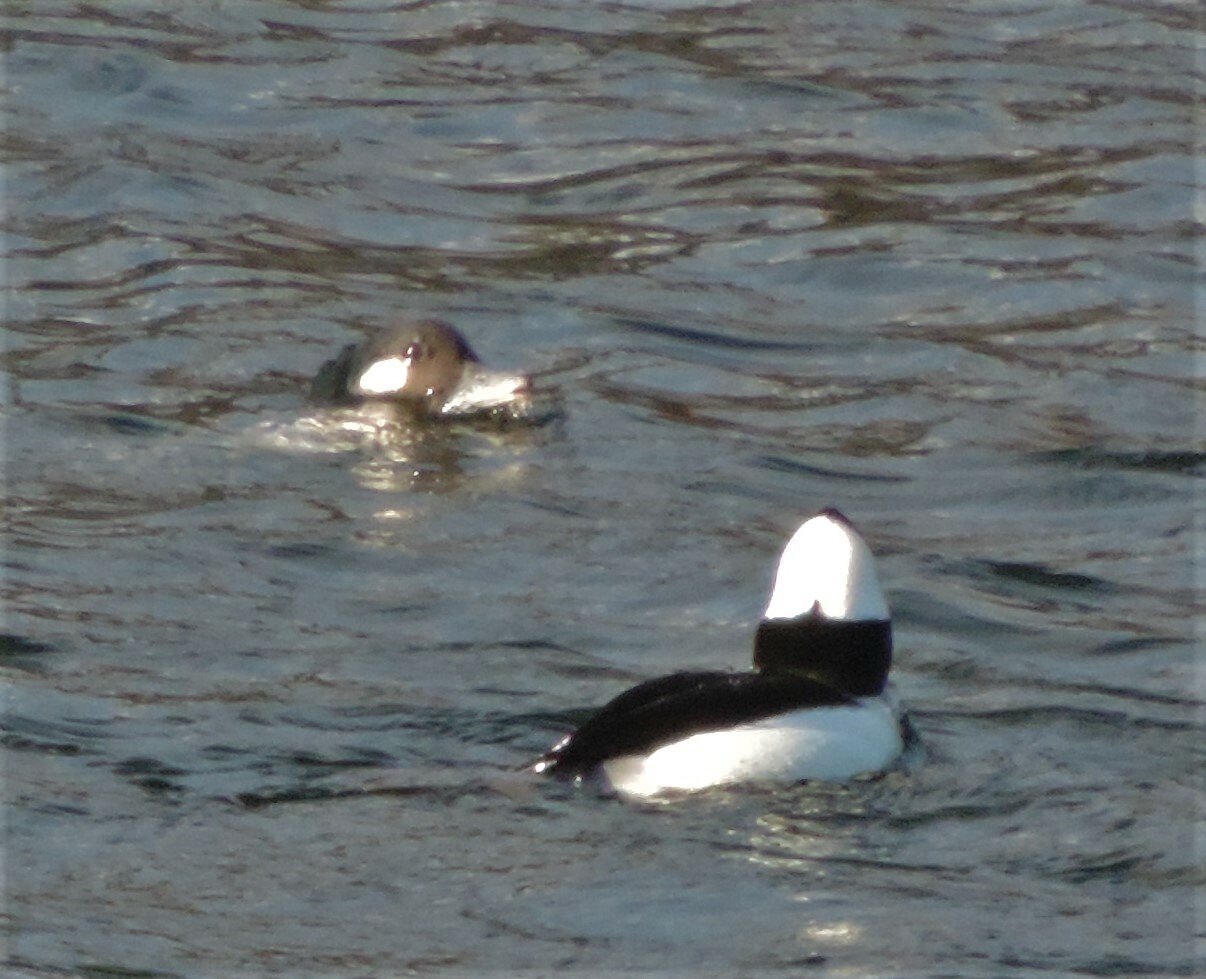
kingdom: Animalia
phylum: Chordata
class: Aves
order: Anseriformes
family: Anatidae
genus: Bucephala
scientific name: Bucephala albeola
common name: Bufflehead
